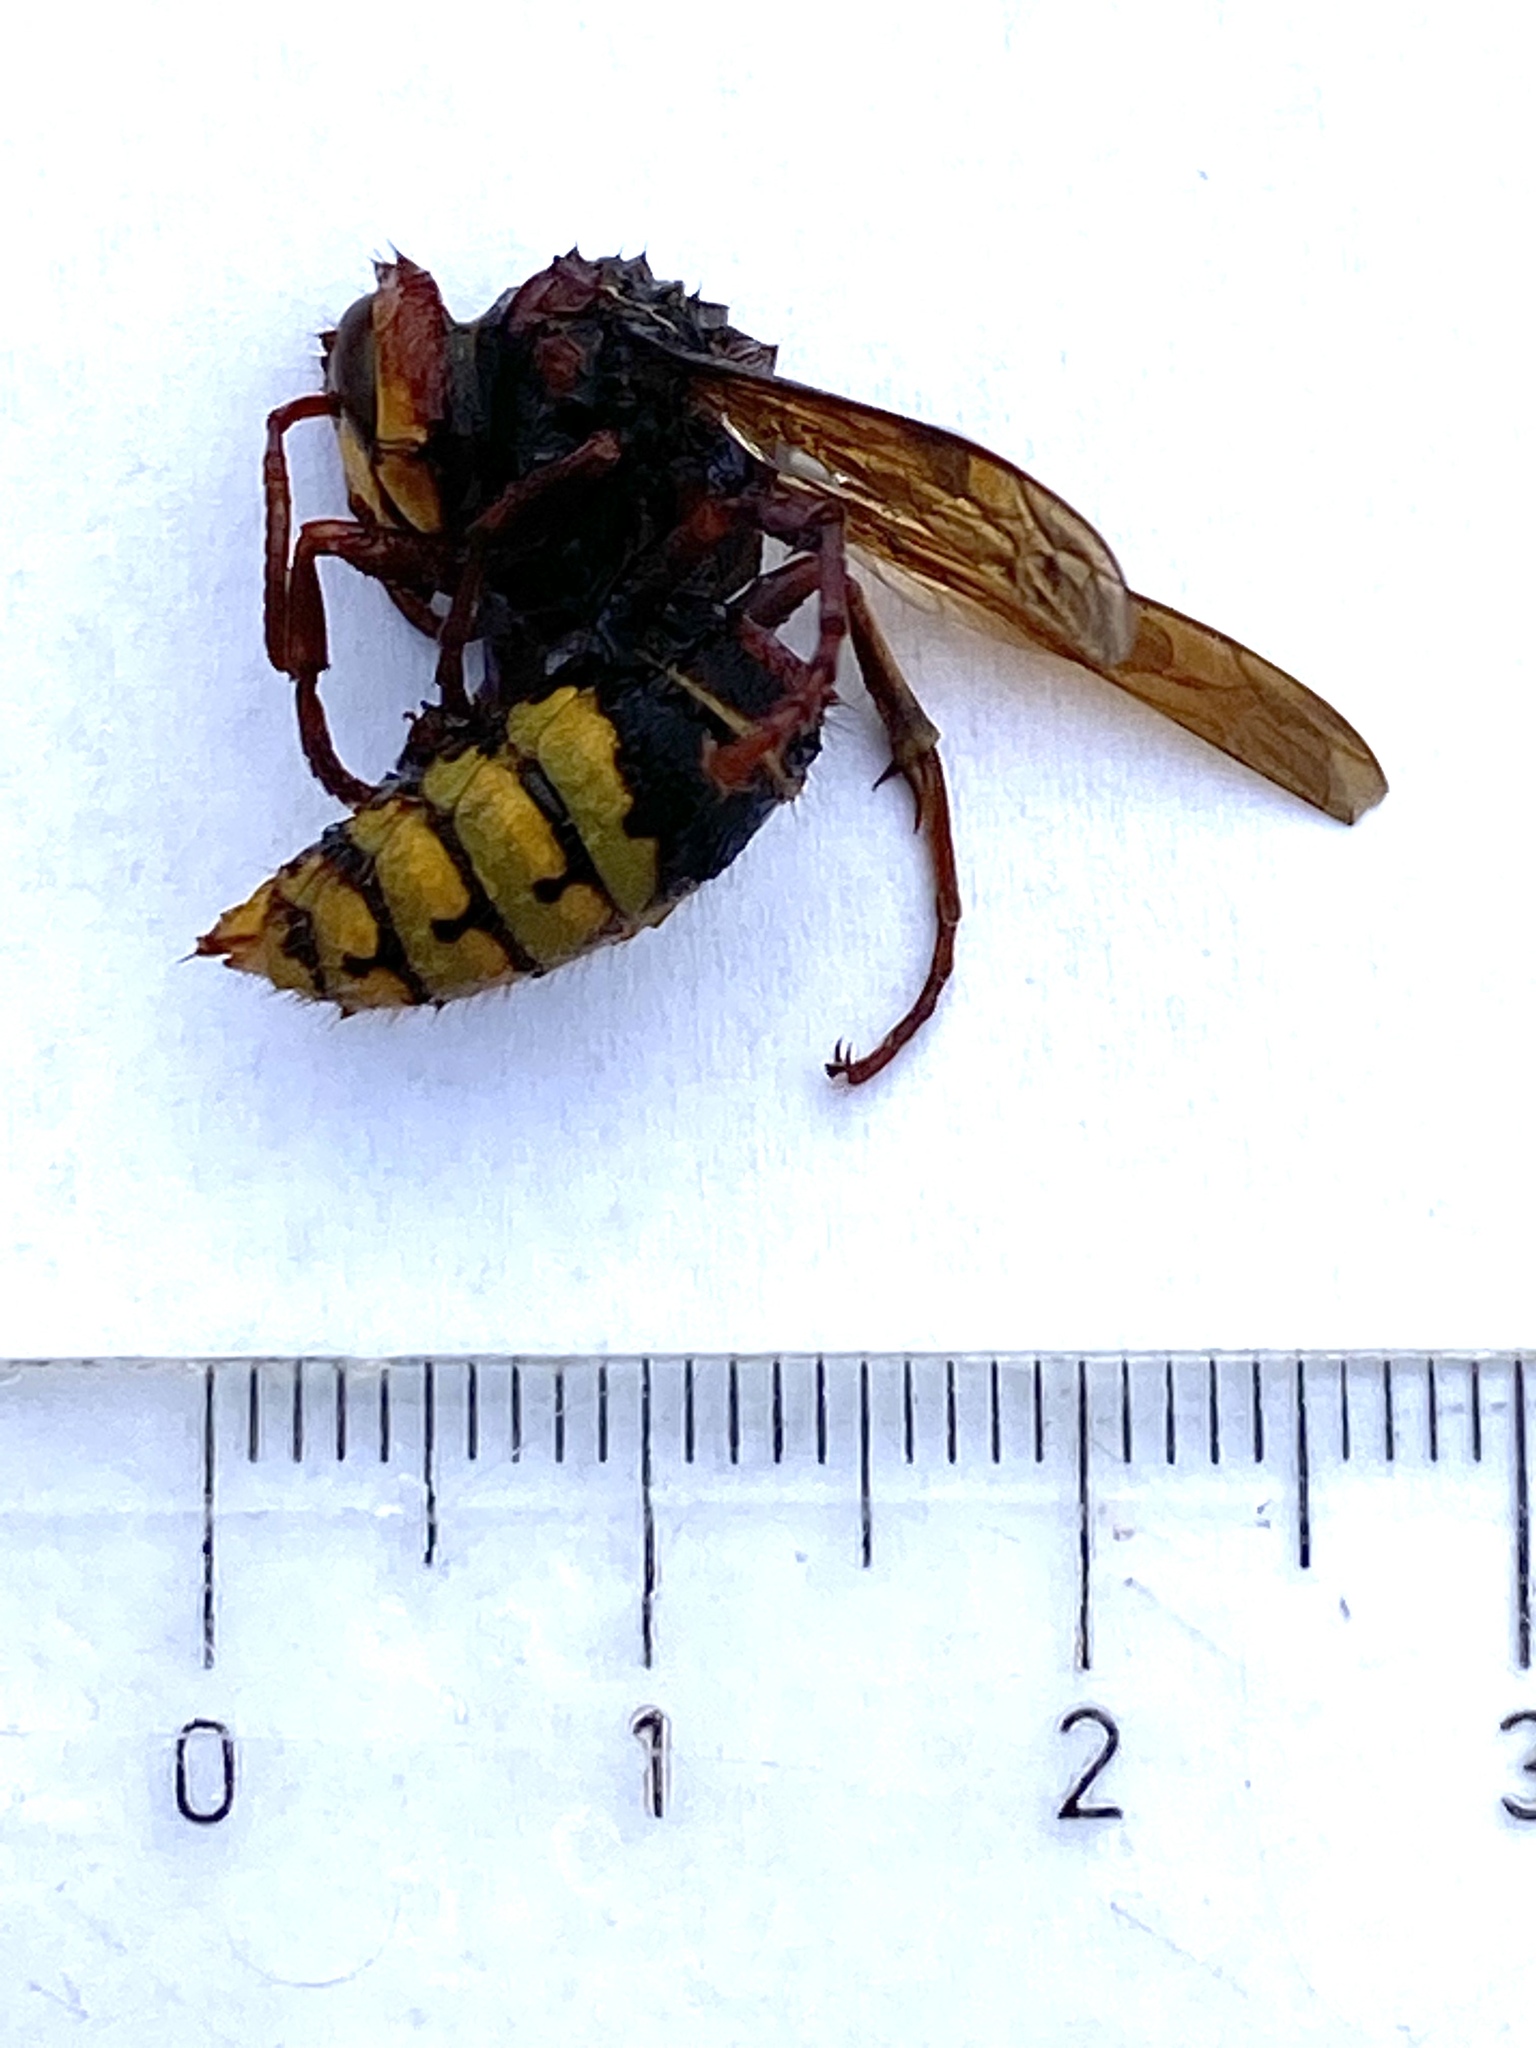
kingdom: Animalia
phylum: Arthropoda
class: Insecta
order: Hymenoptera
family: Vespidae
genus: Vespa
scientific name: Vespa crabro
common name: Hornet
